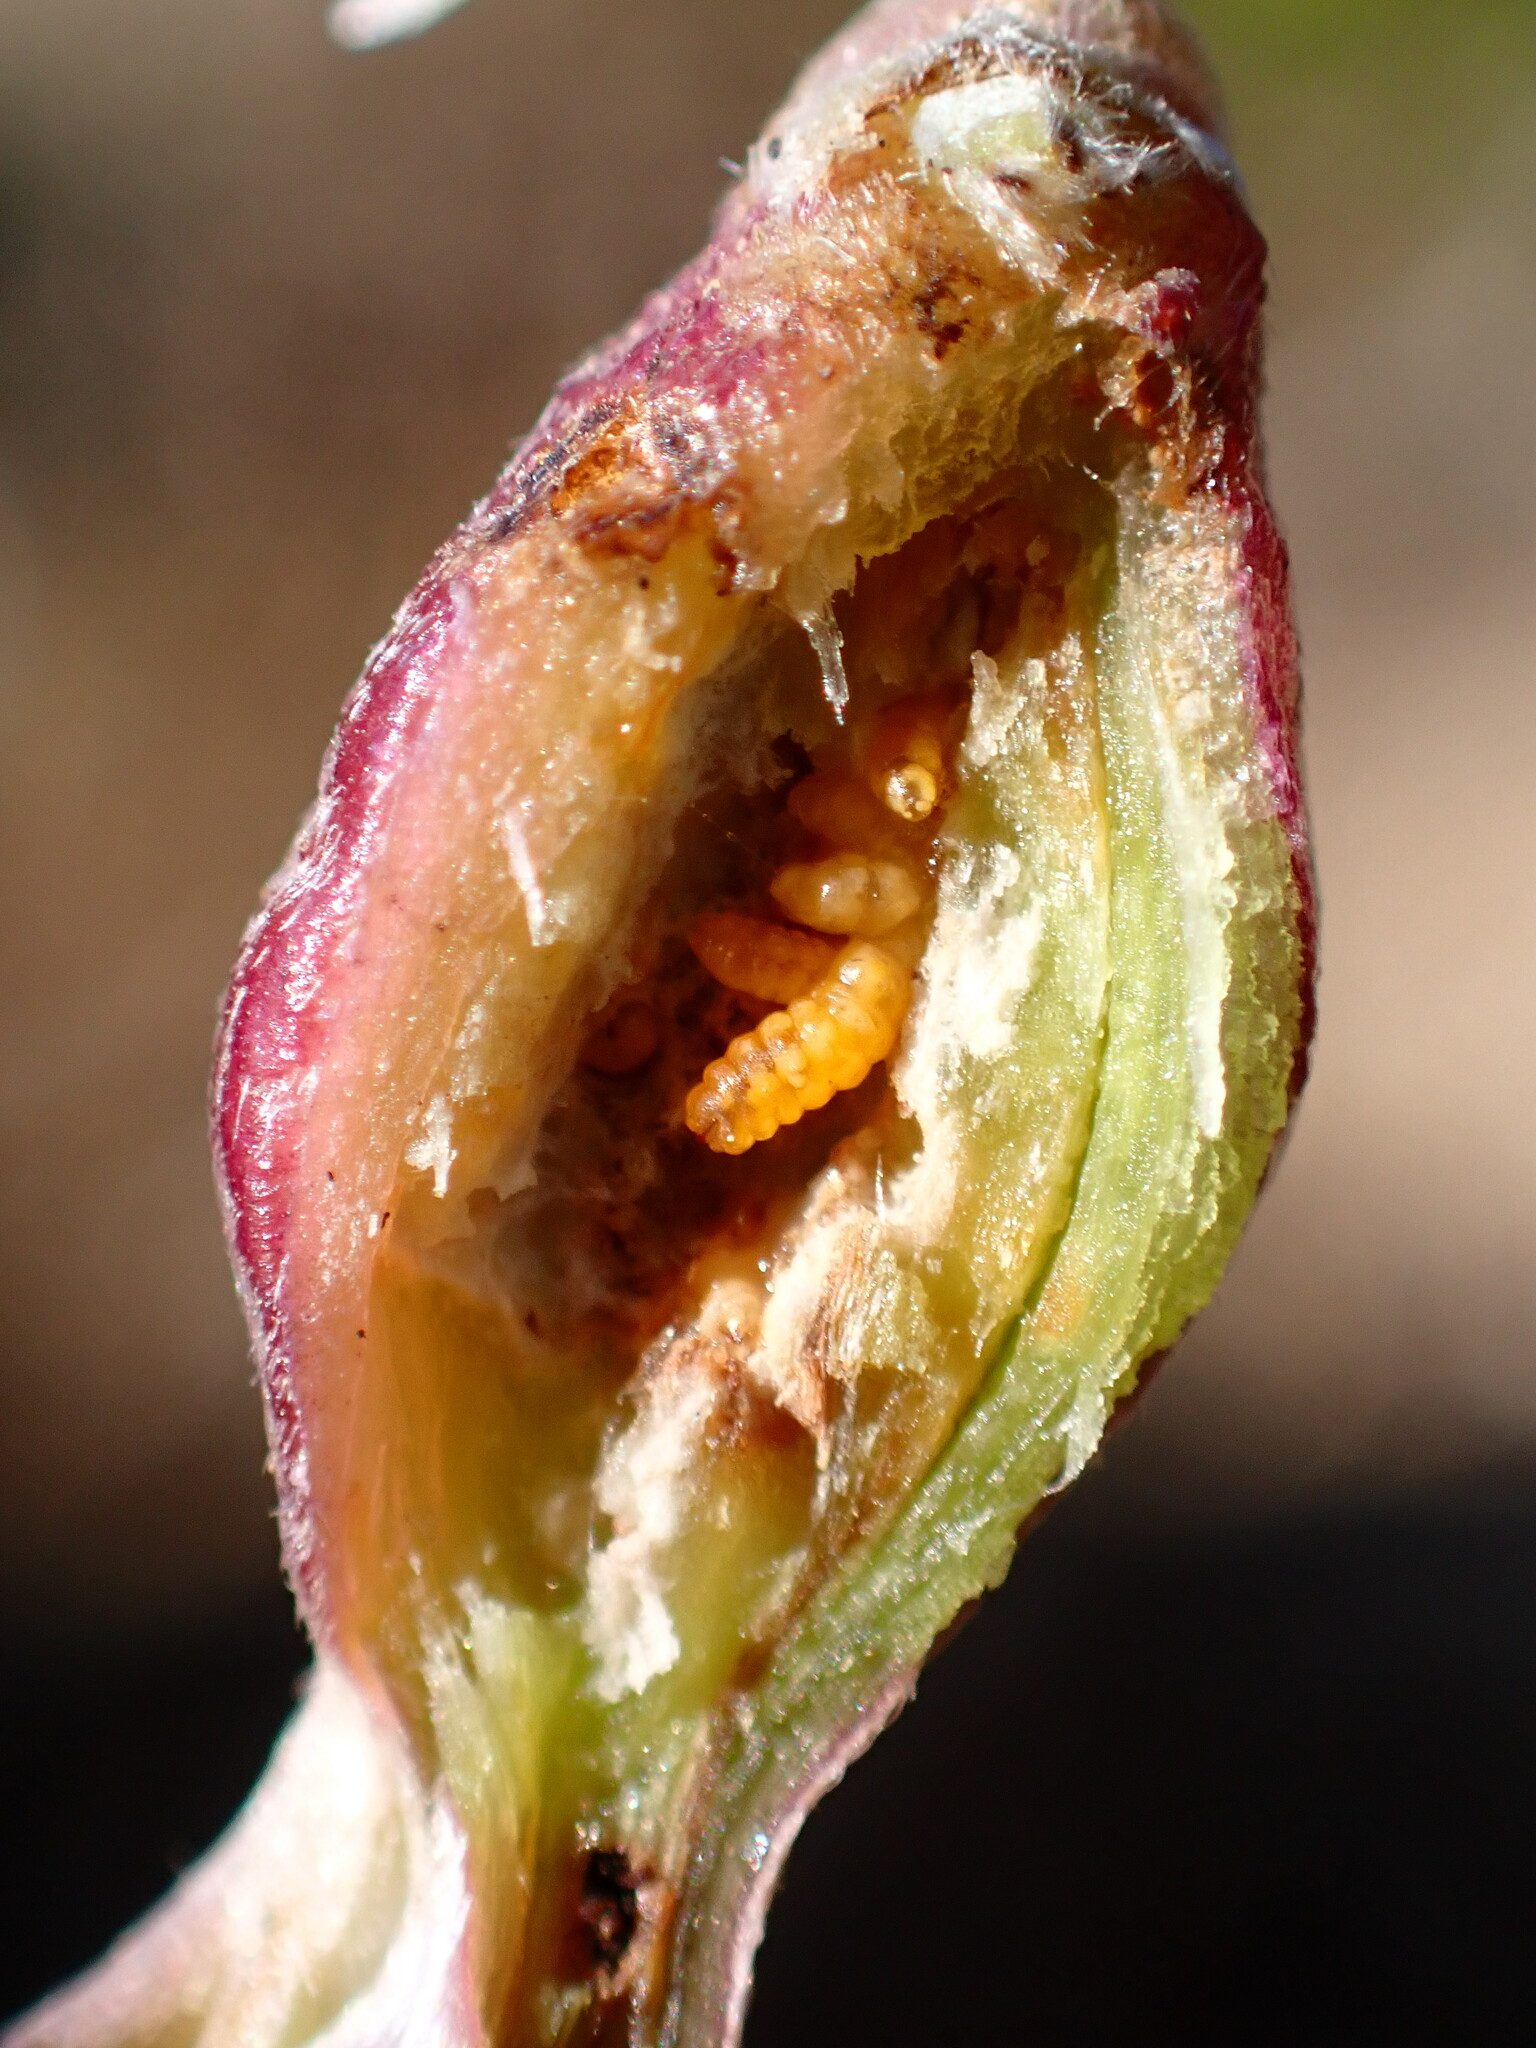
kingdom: Animalia
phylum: Arthropoda
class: Insecta
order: Diptera
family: Cecidomyiidae
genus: Neolasioptera
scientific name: Neolasioptera lupini
